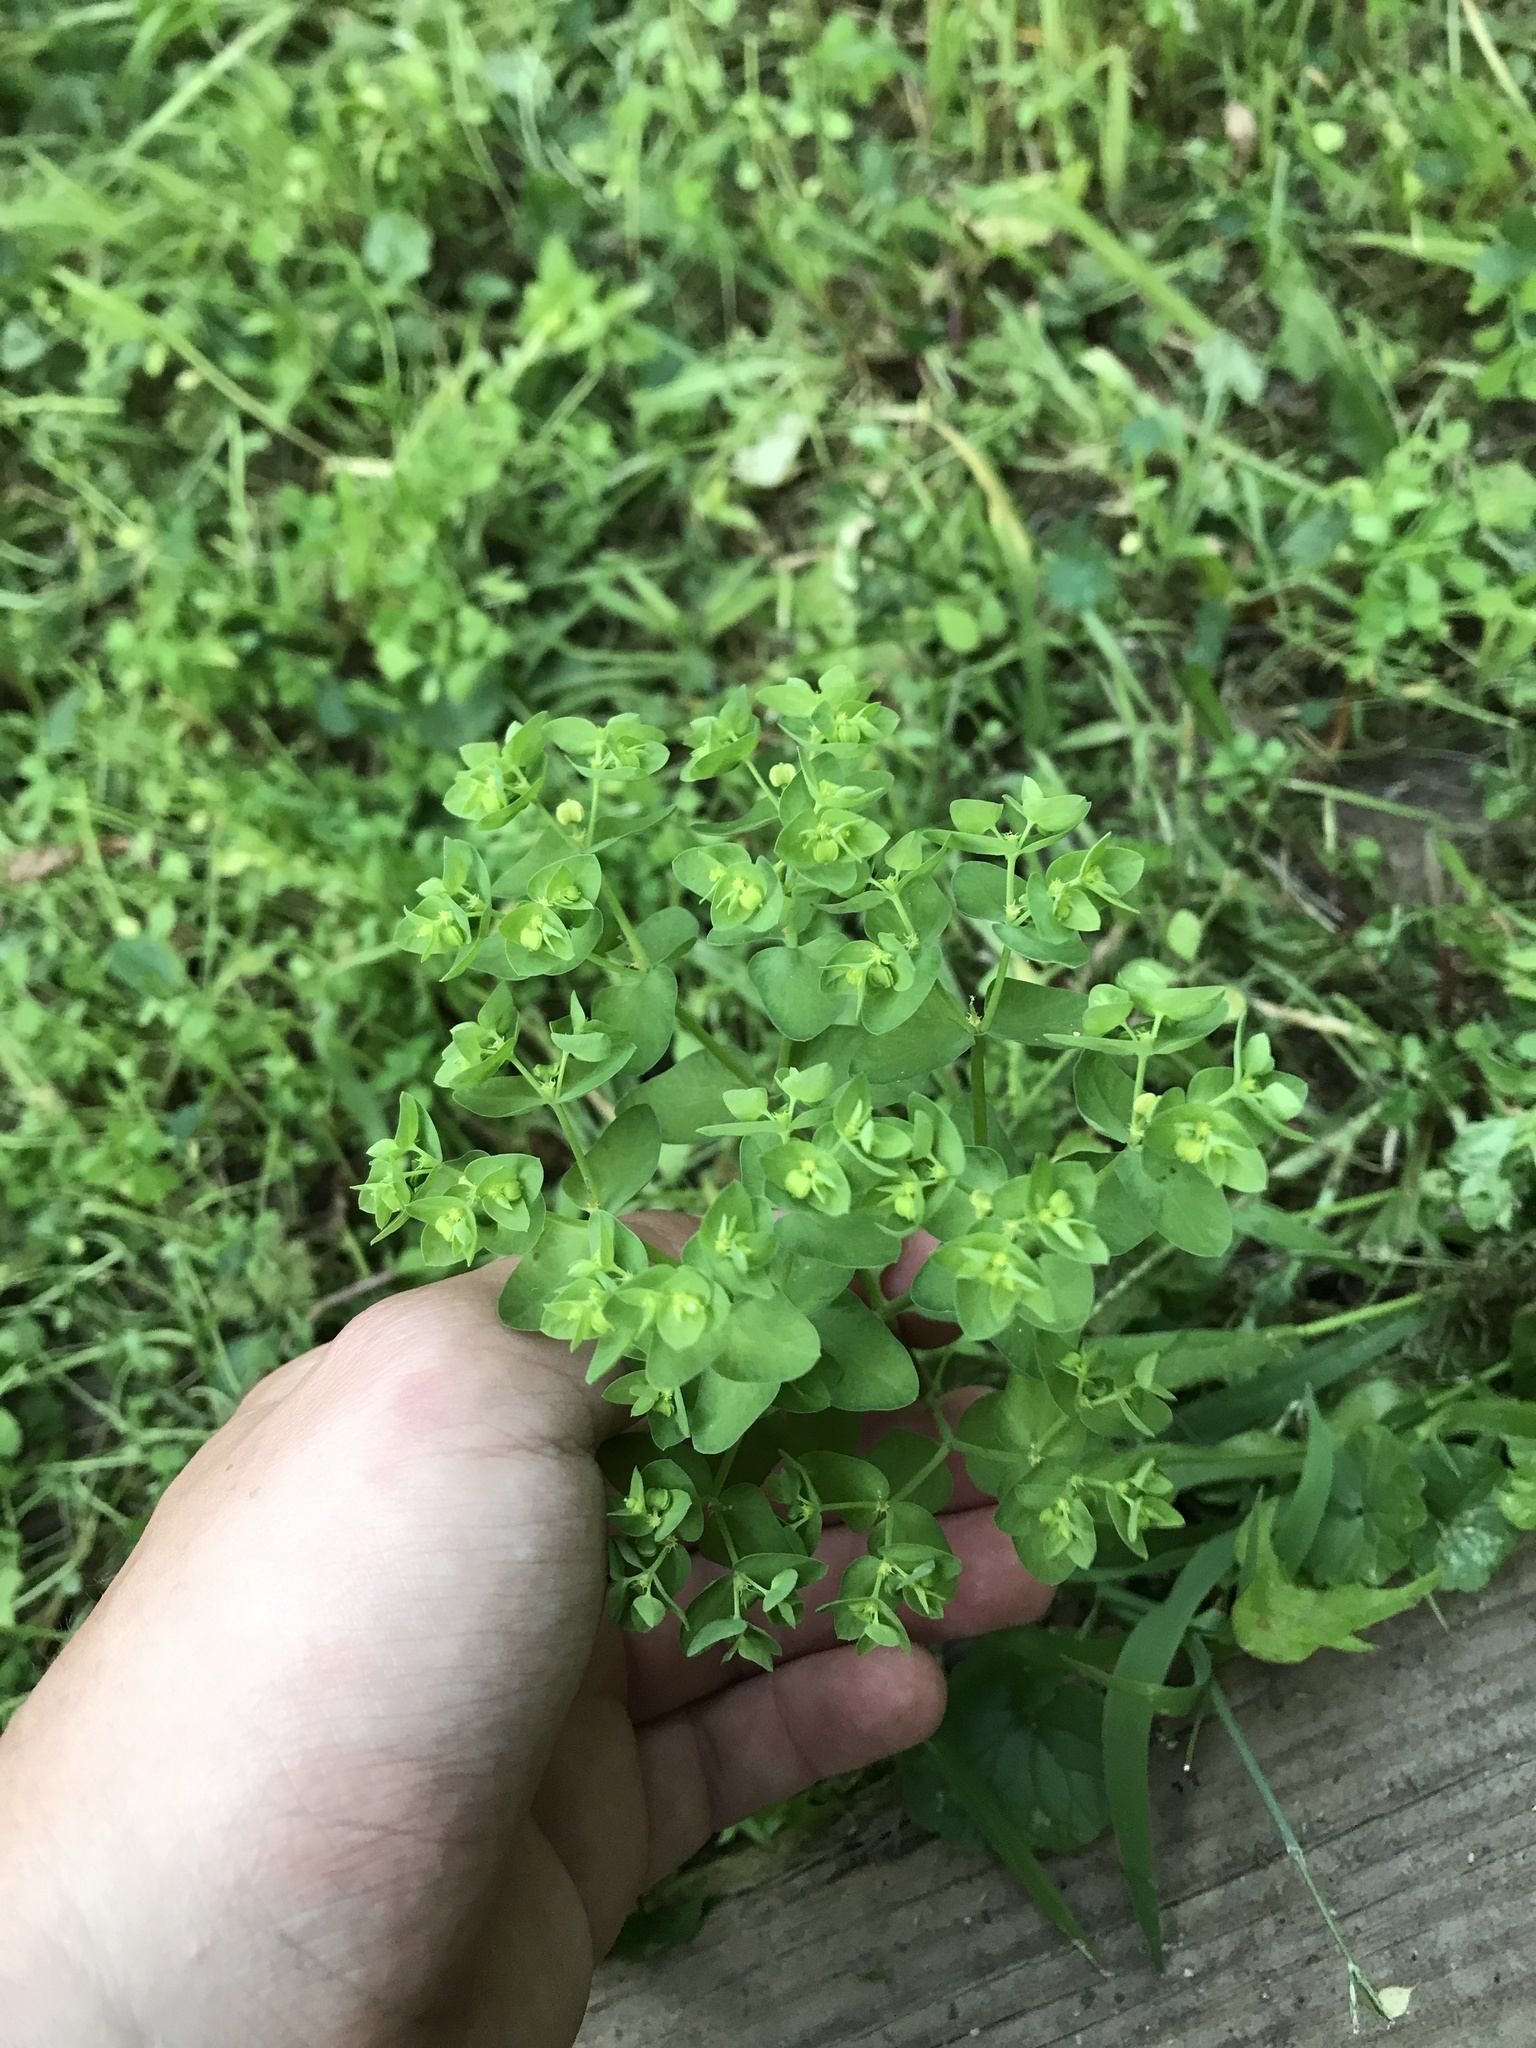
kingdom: Plantae
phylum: Tracheophyta
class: Magnoliopsida
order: Malpighiales
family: Euphorbiaceae
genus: Euphorbia
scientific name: Euphorbia peplus
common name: Petty spurge
